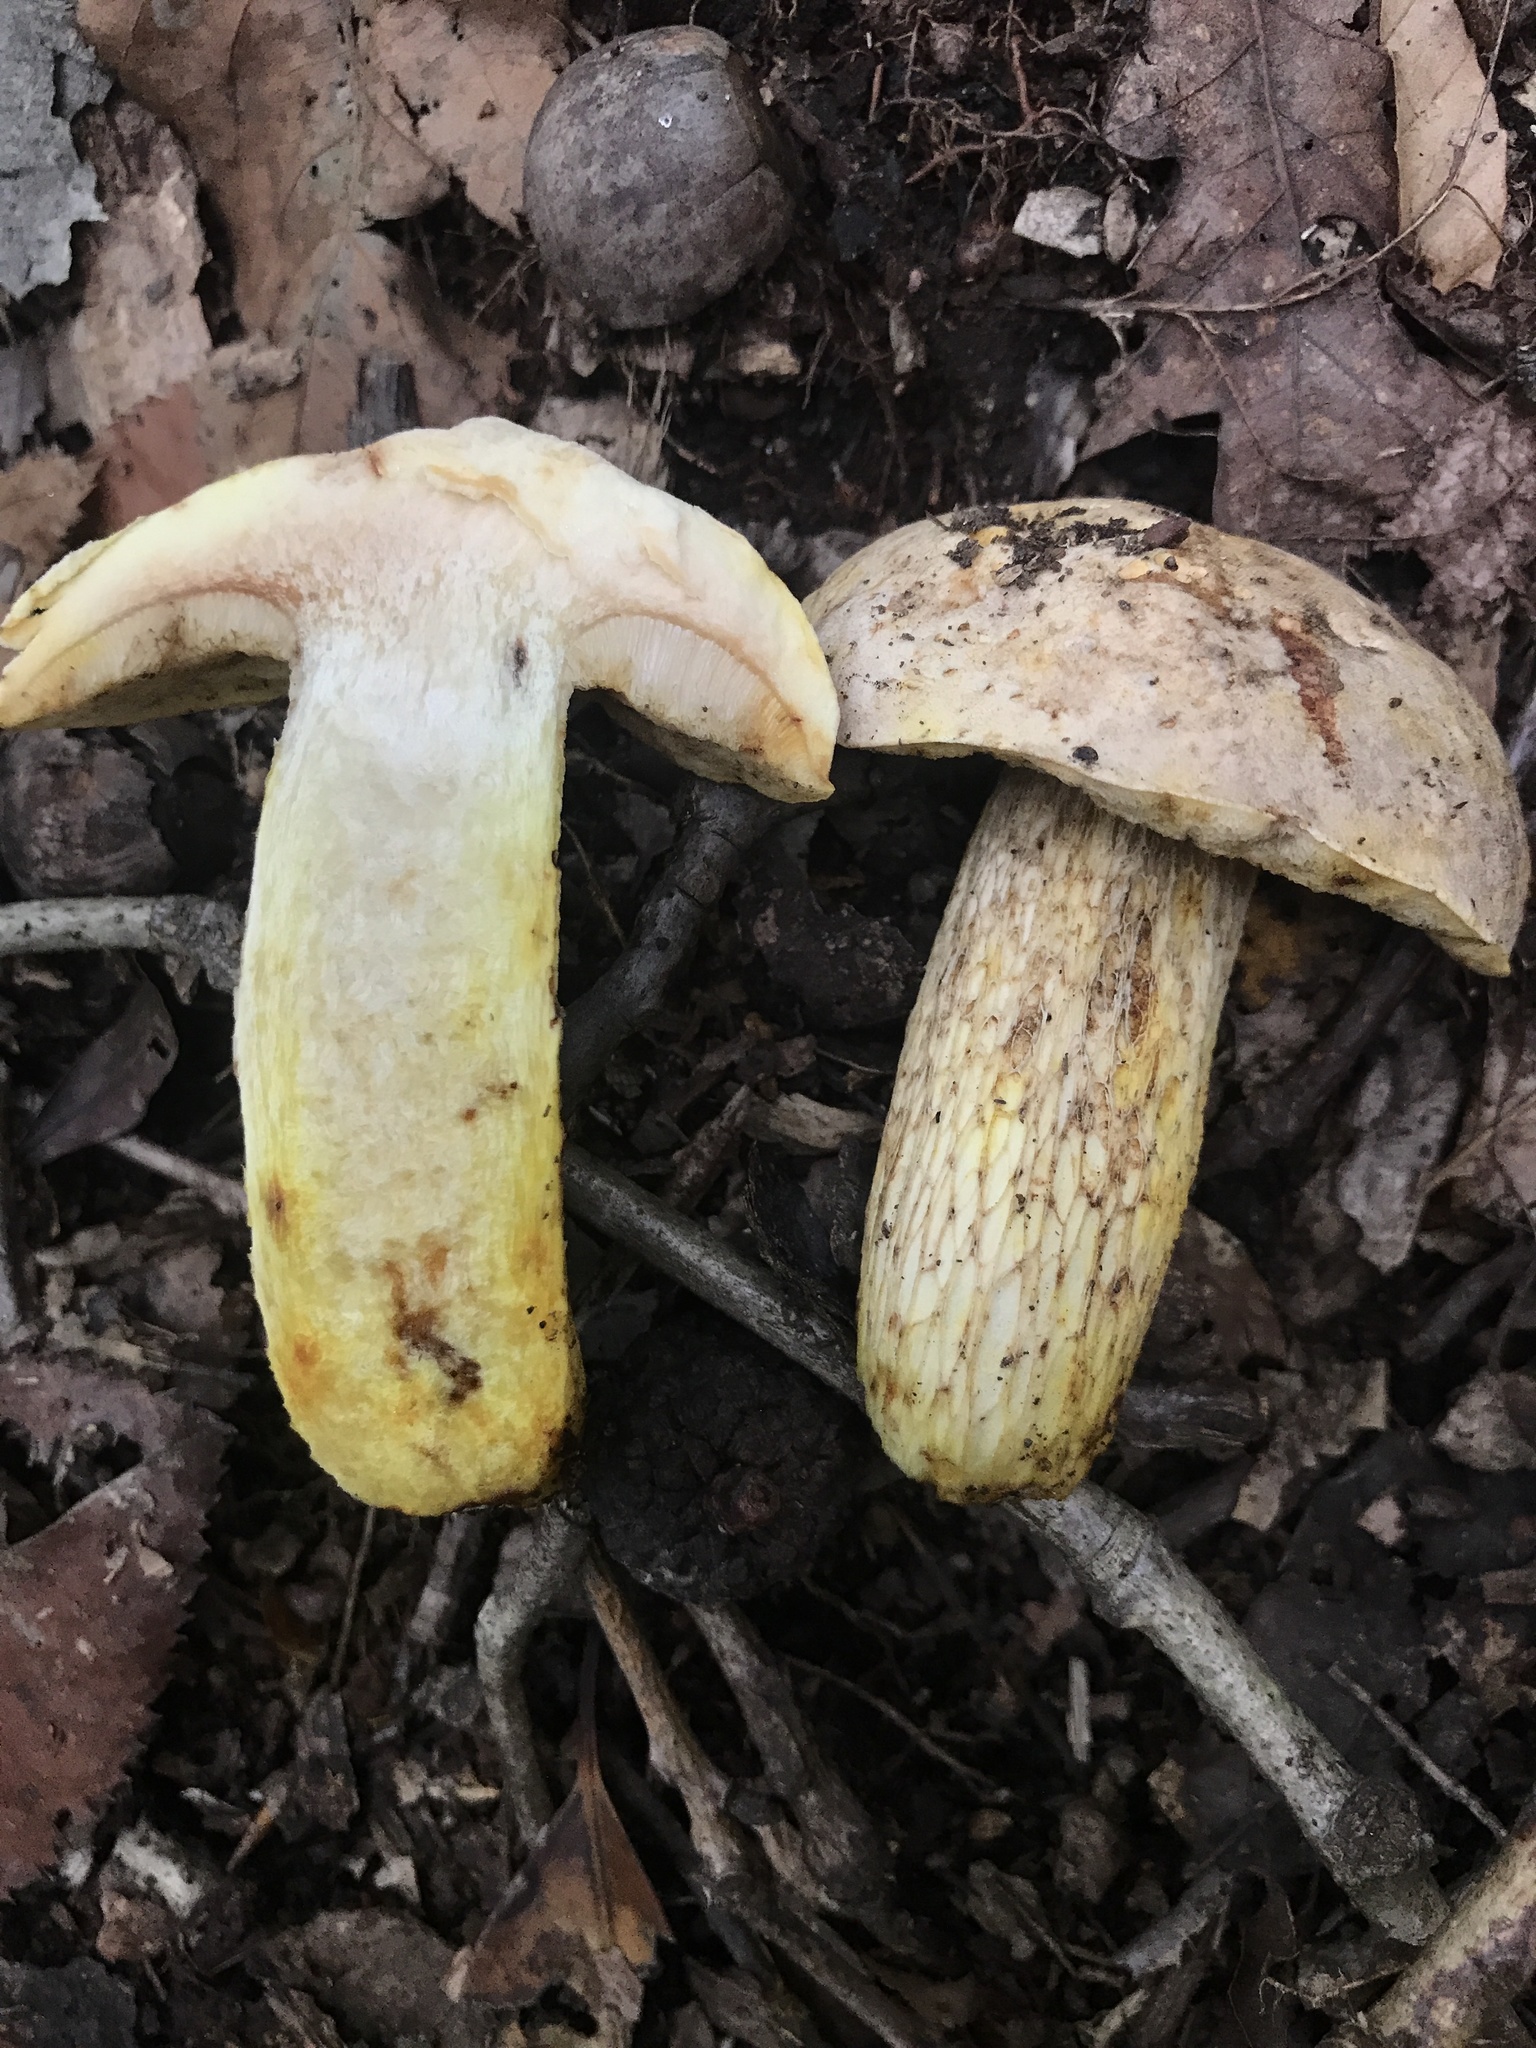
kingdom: Fungi
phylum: Basidiomycota
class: Agaricomycetes
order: Boletales
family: Boletaceae
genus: Retiboletus
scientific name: Retiboletus griseus
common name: Grey bolete
